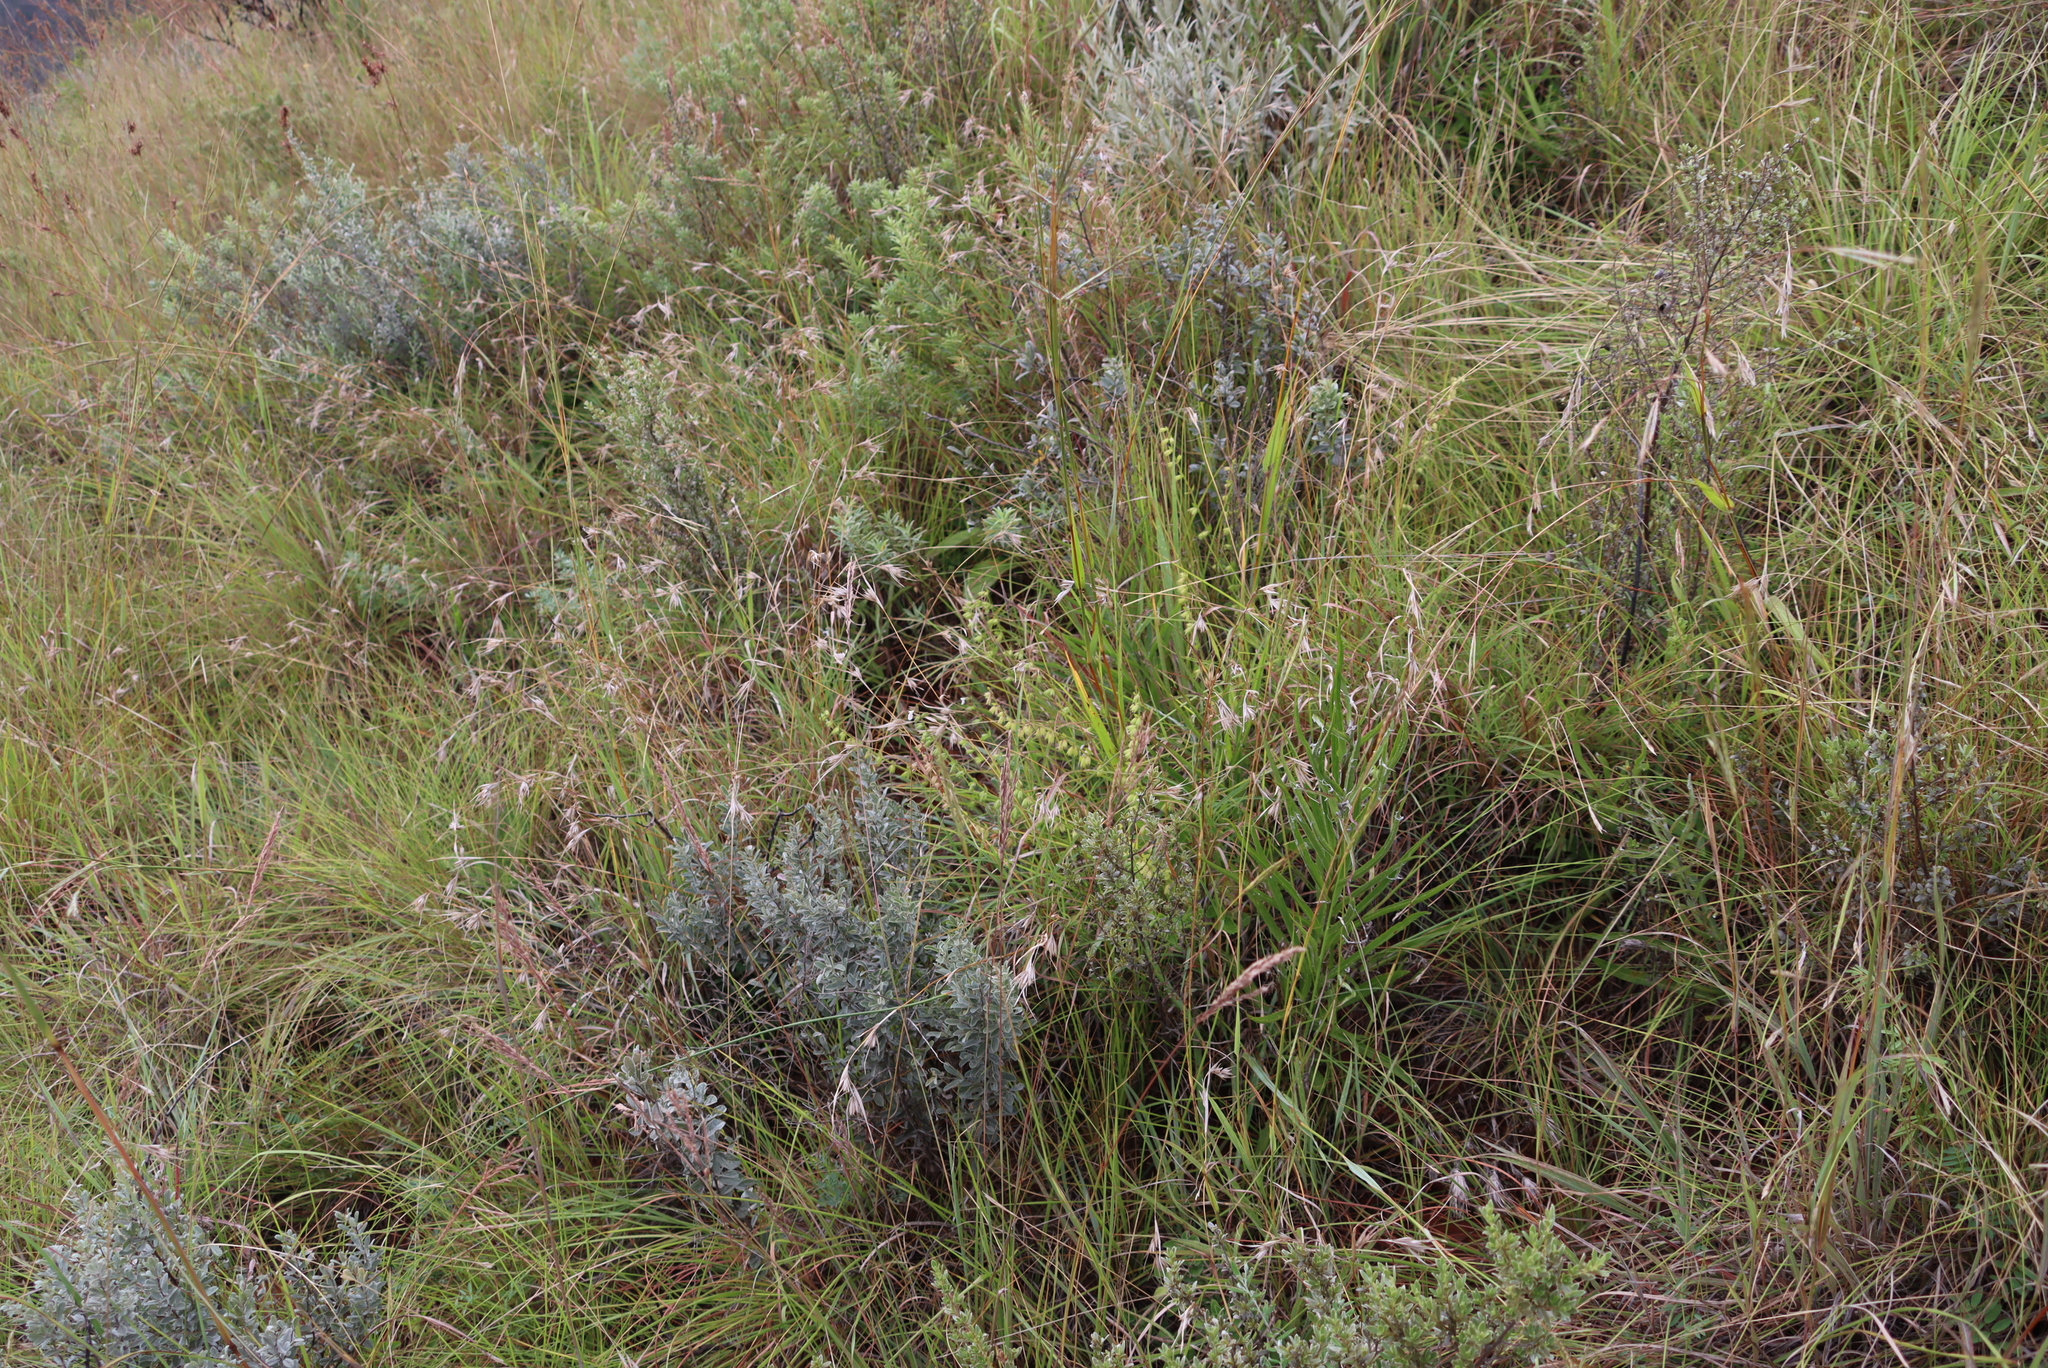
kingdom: Plantae
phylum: Tracheophyta
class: Liliopsida
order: Poales
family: Poaceae
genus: Themeda
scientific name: Themeda triandra
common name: Kangaroo grass
